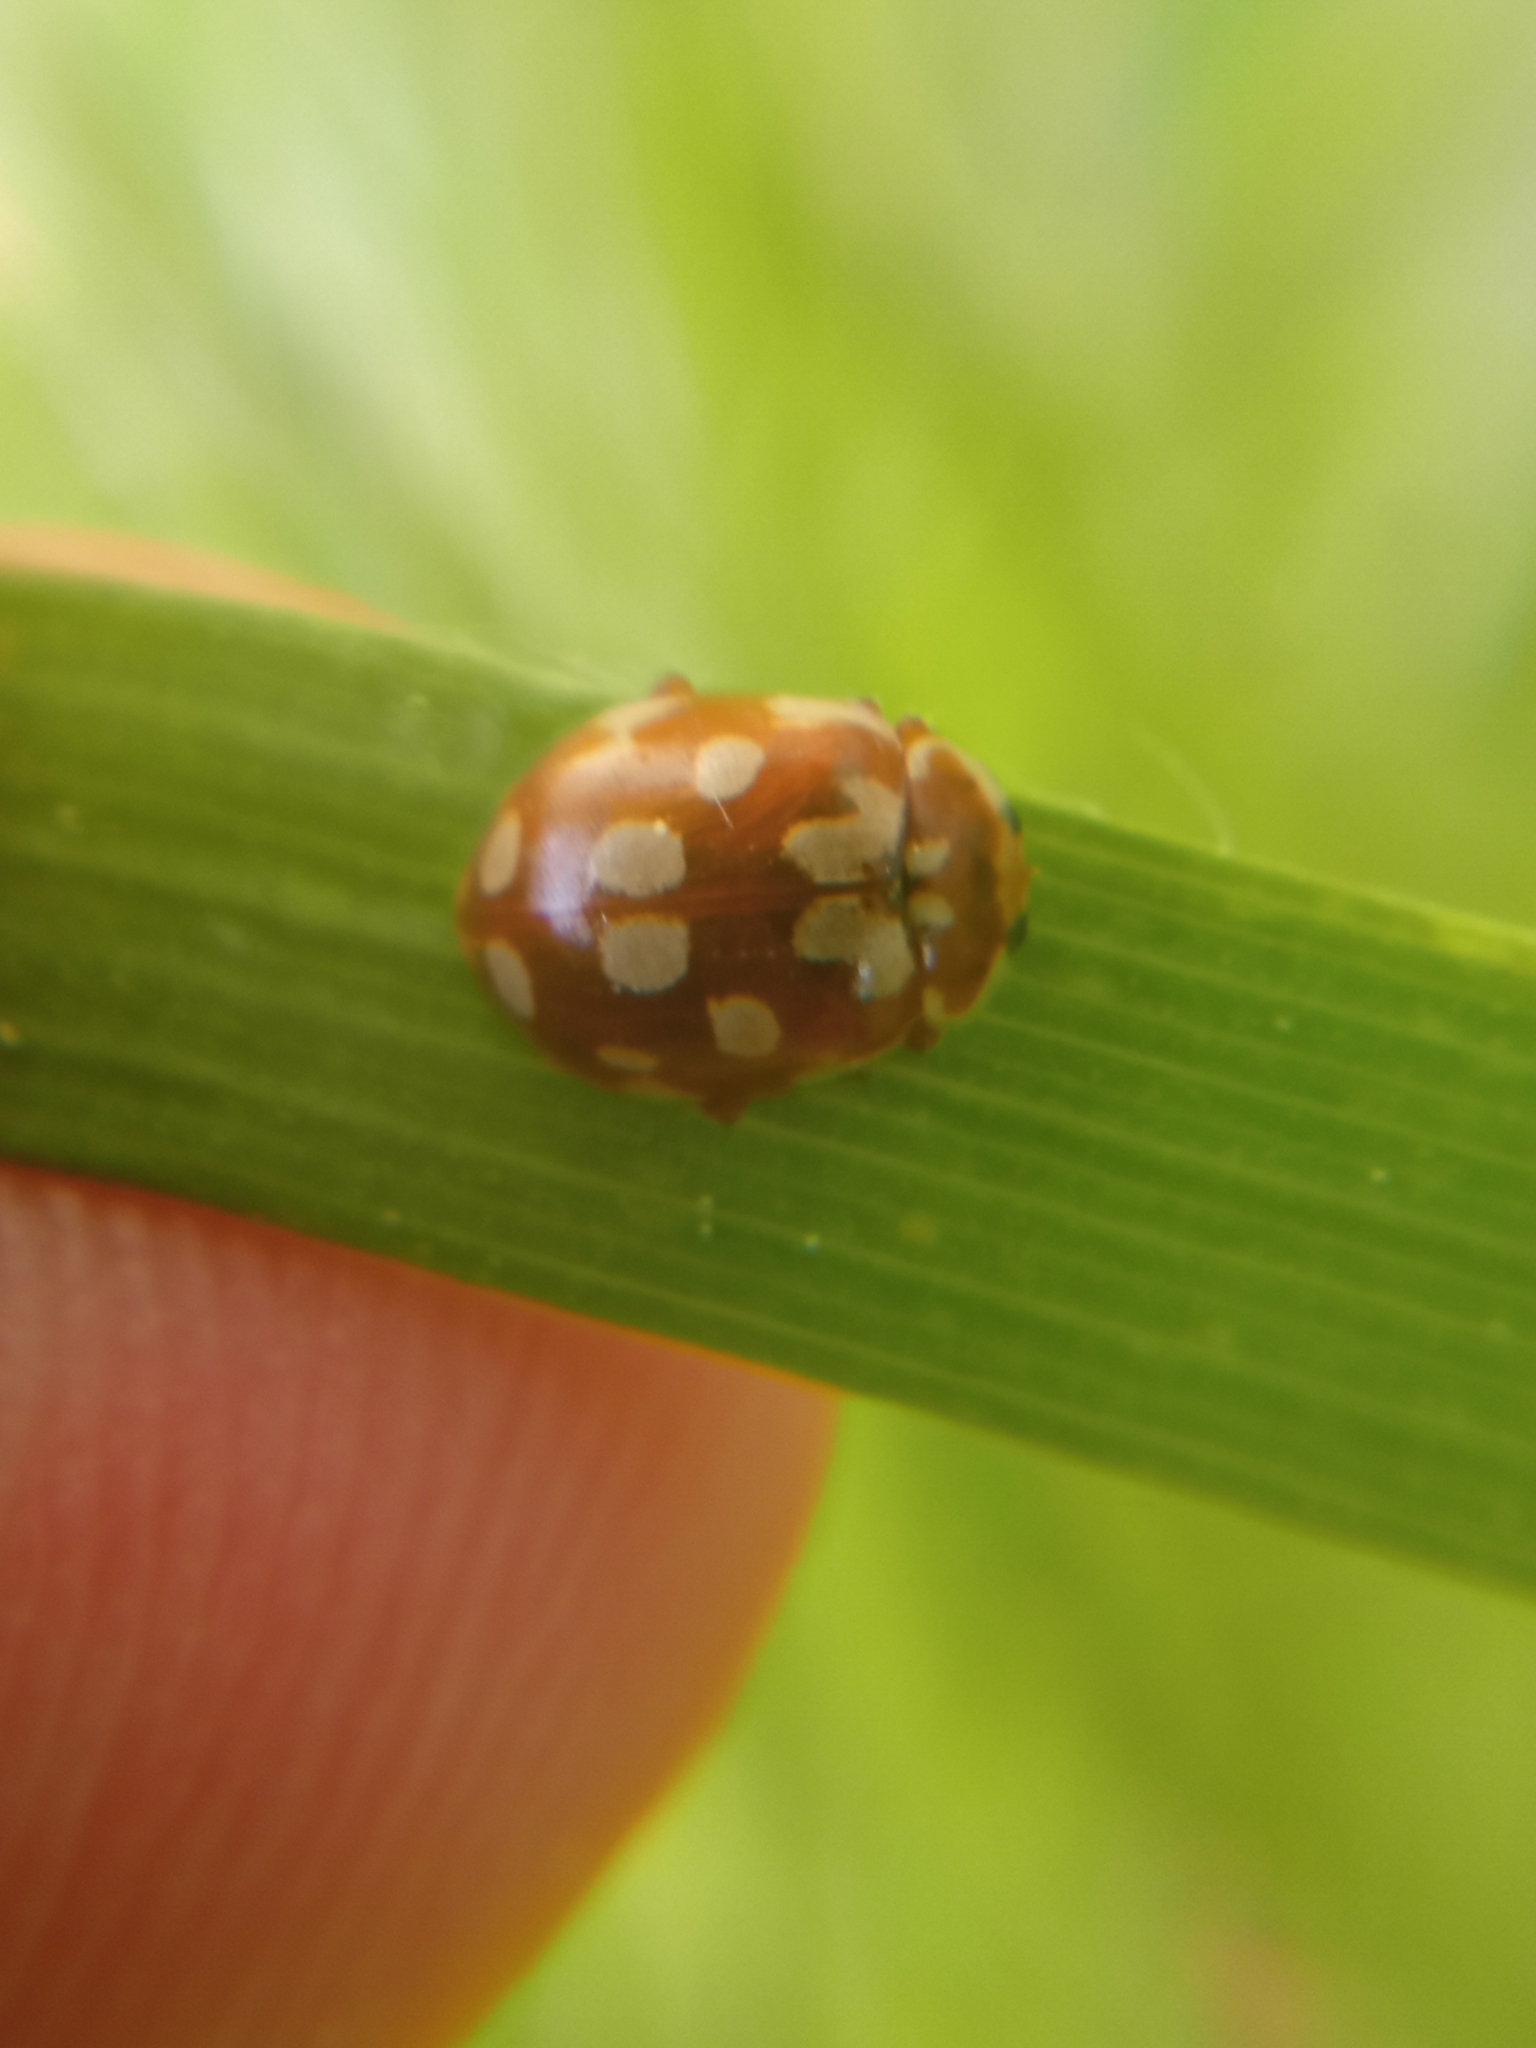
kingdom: Animalia
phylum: Arthropoda
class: Insecta
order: Coleoptera
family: Coccinellidae
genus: Myrrha
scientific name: Myrrha octodecimguttata
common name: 18-spot ladybird
